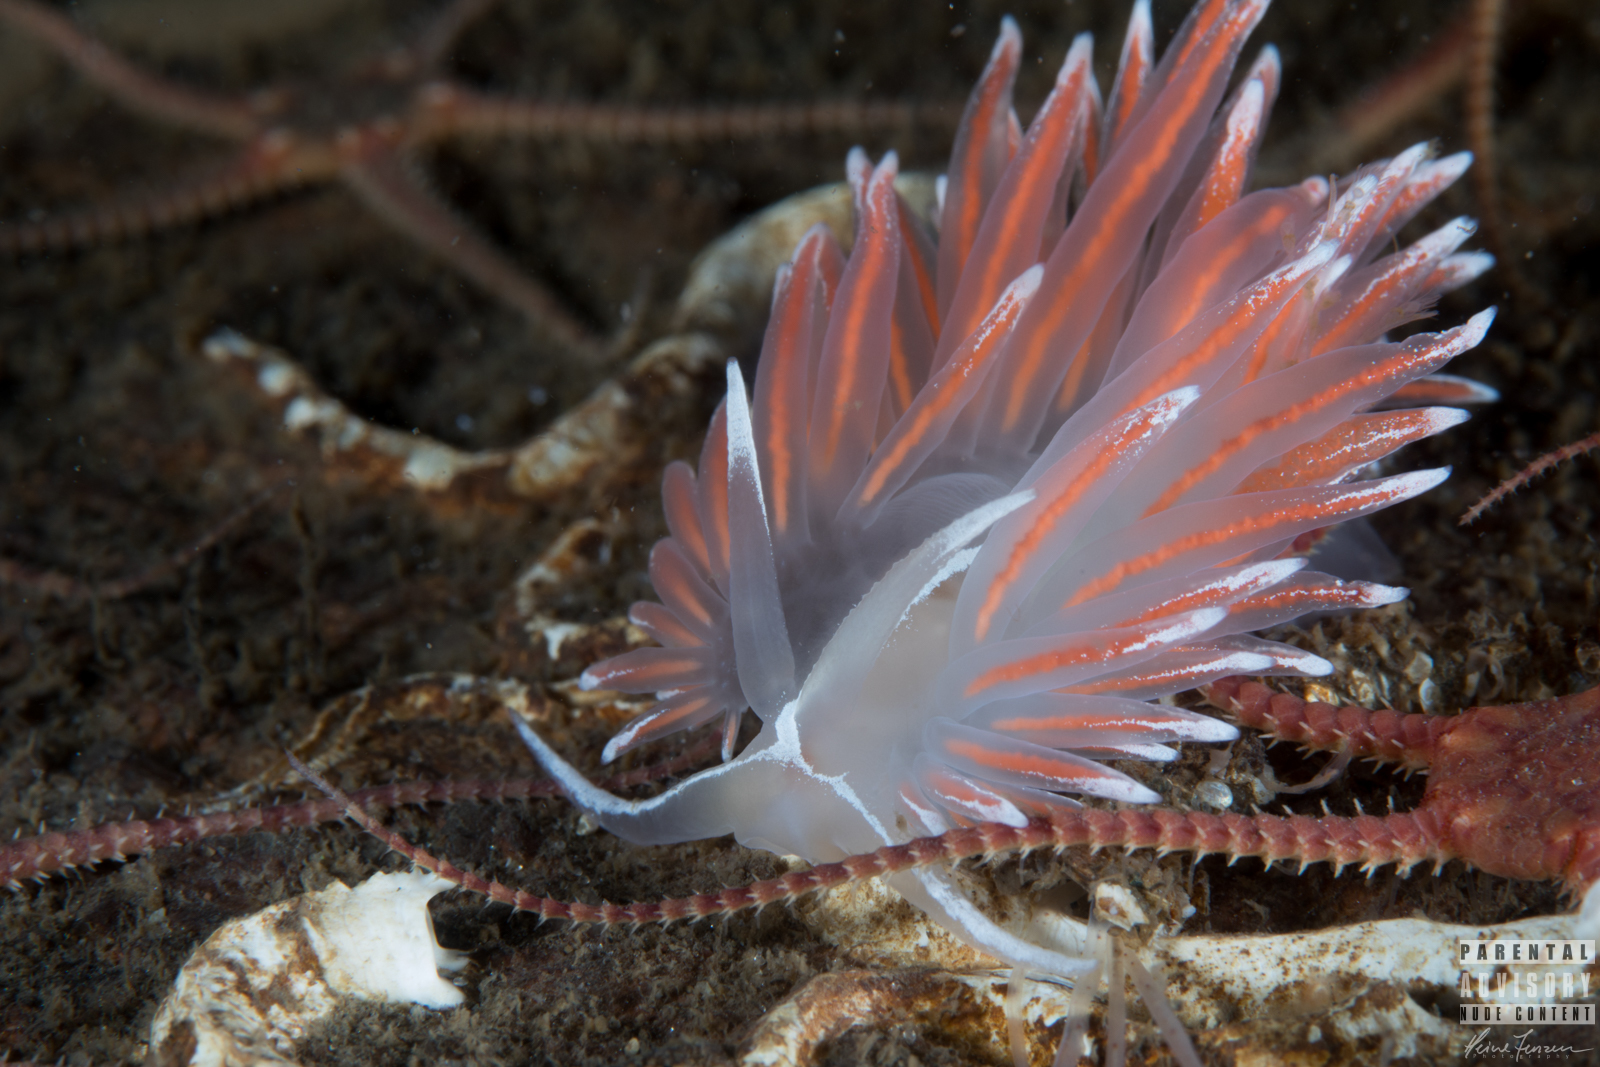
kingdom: Animalia
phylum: Mollusca
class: Gastropoda
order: Nudibranchia
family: Coryphellidae
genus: Coryphella
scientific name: Coryphella lineata
